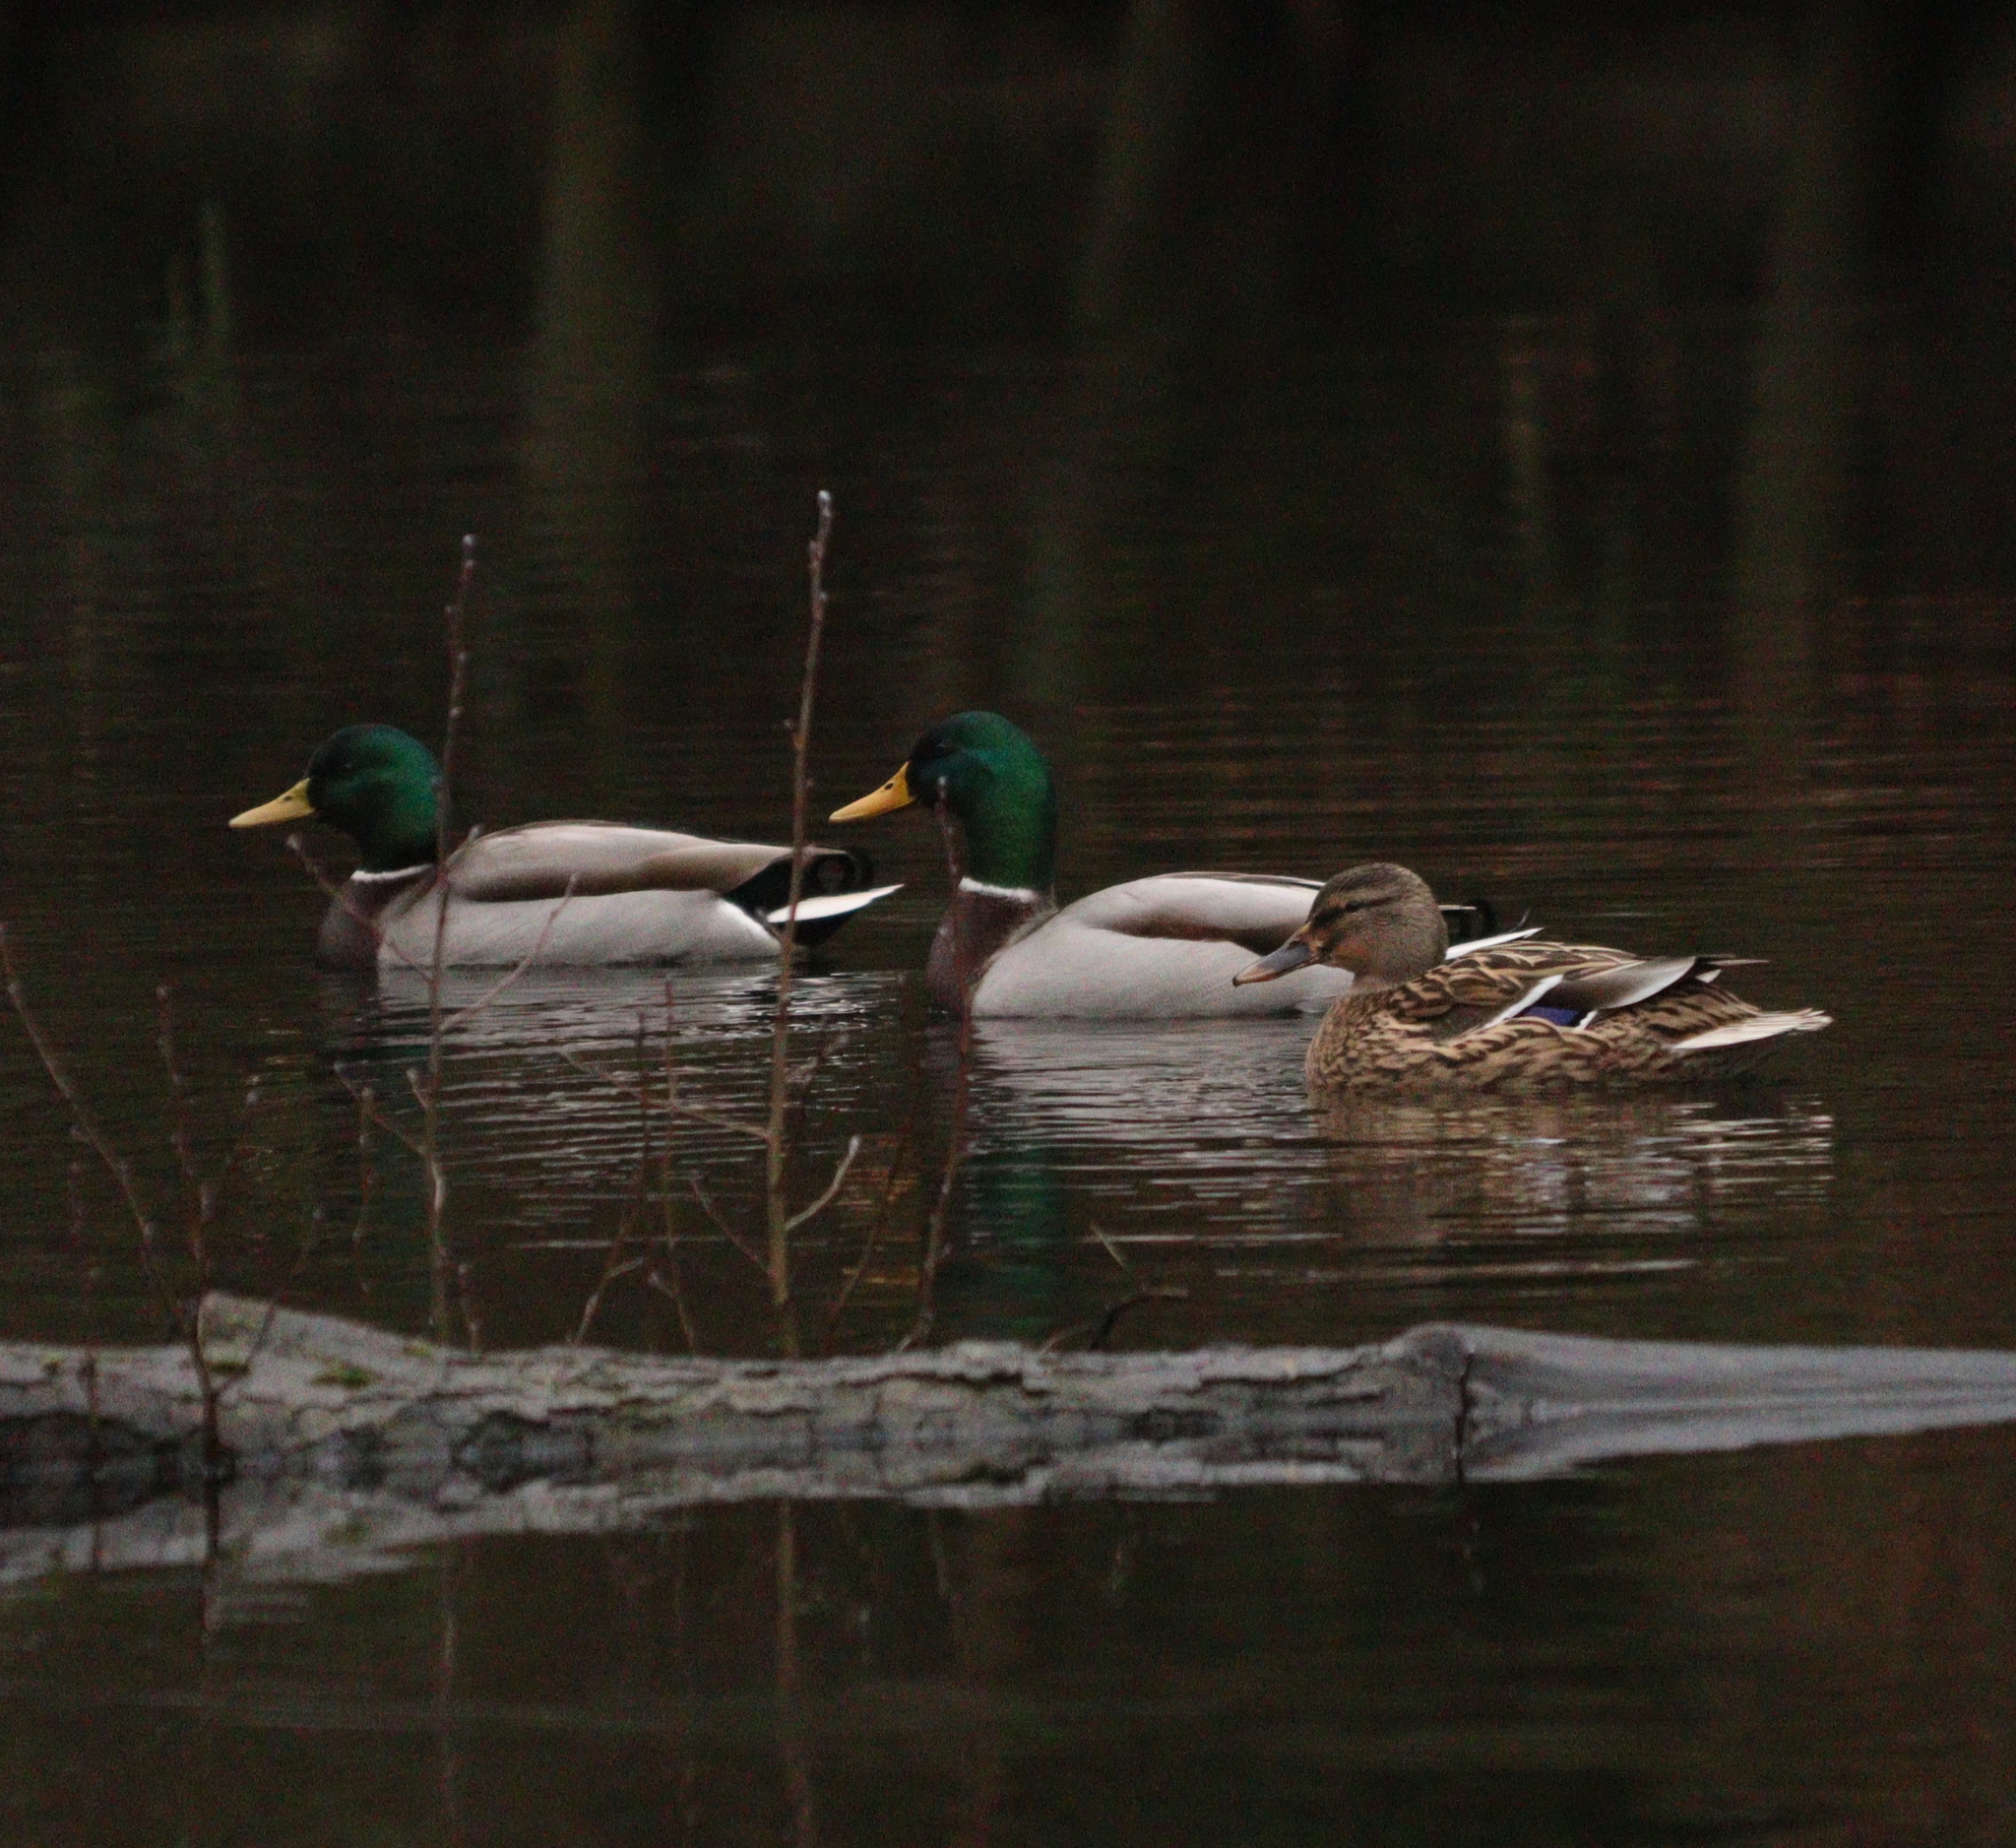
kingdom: Animalia
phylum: Chordata
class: Aves
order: Anseriformes
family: Anatidae
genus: Anas
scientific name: Anas platyrhynchos
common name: Mallard
